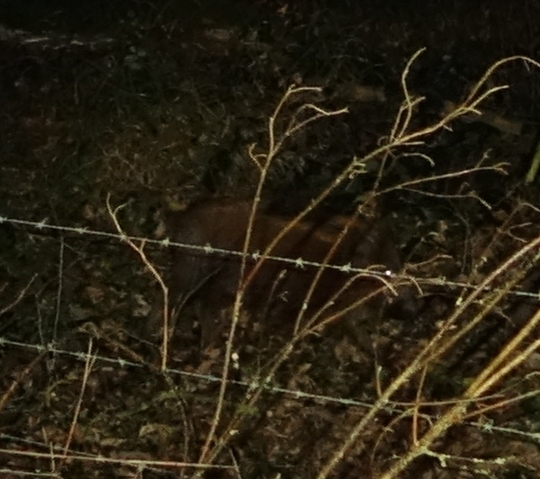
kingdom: Animalia
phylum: Chordata
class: Mammalia
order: Artiodactyla
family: Suidae
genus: Sus
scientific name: Sus scrofa
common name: Wild boar
